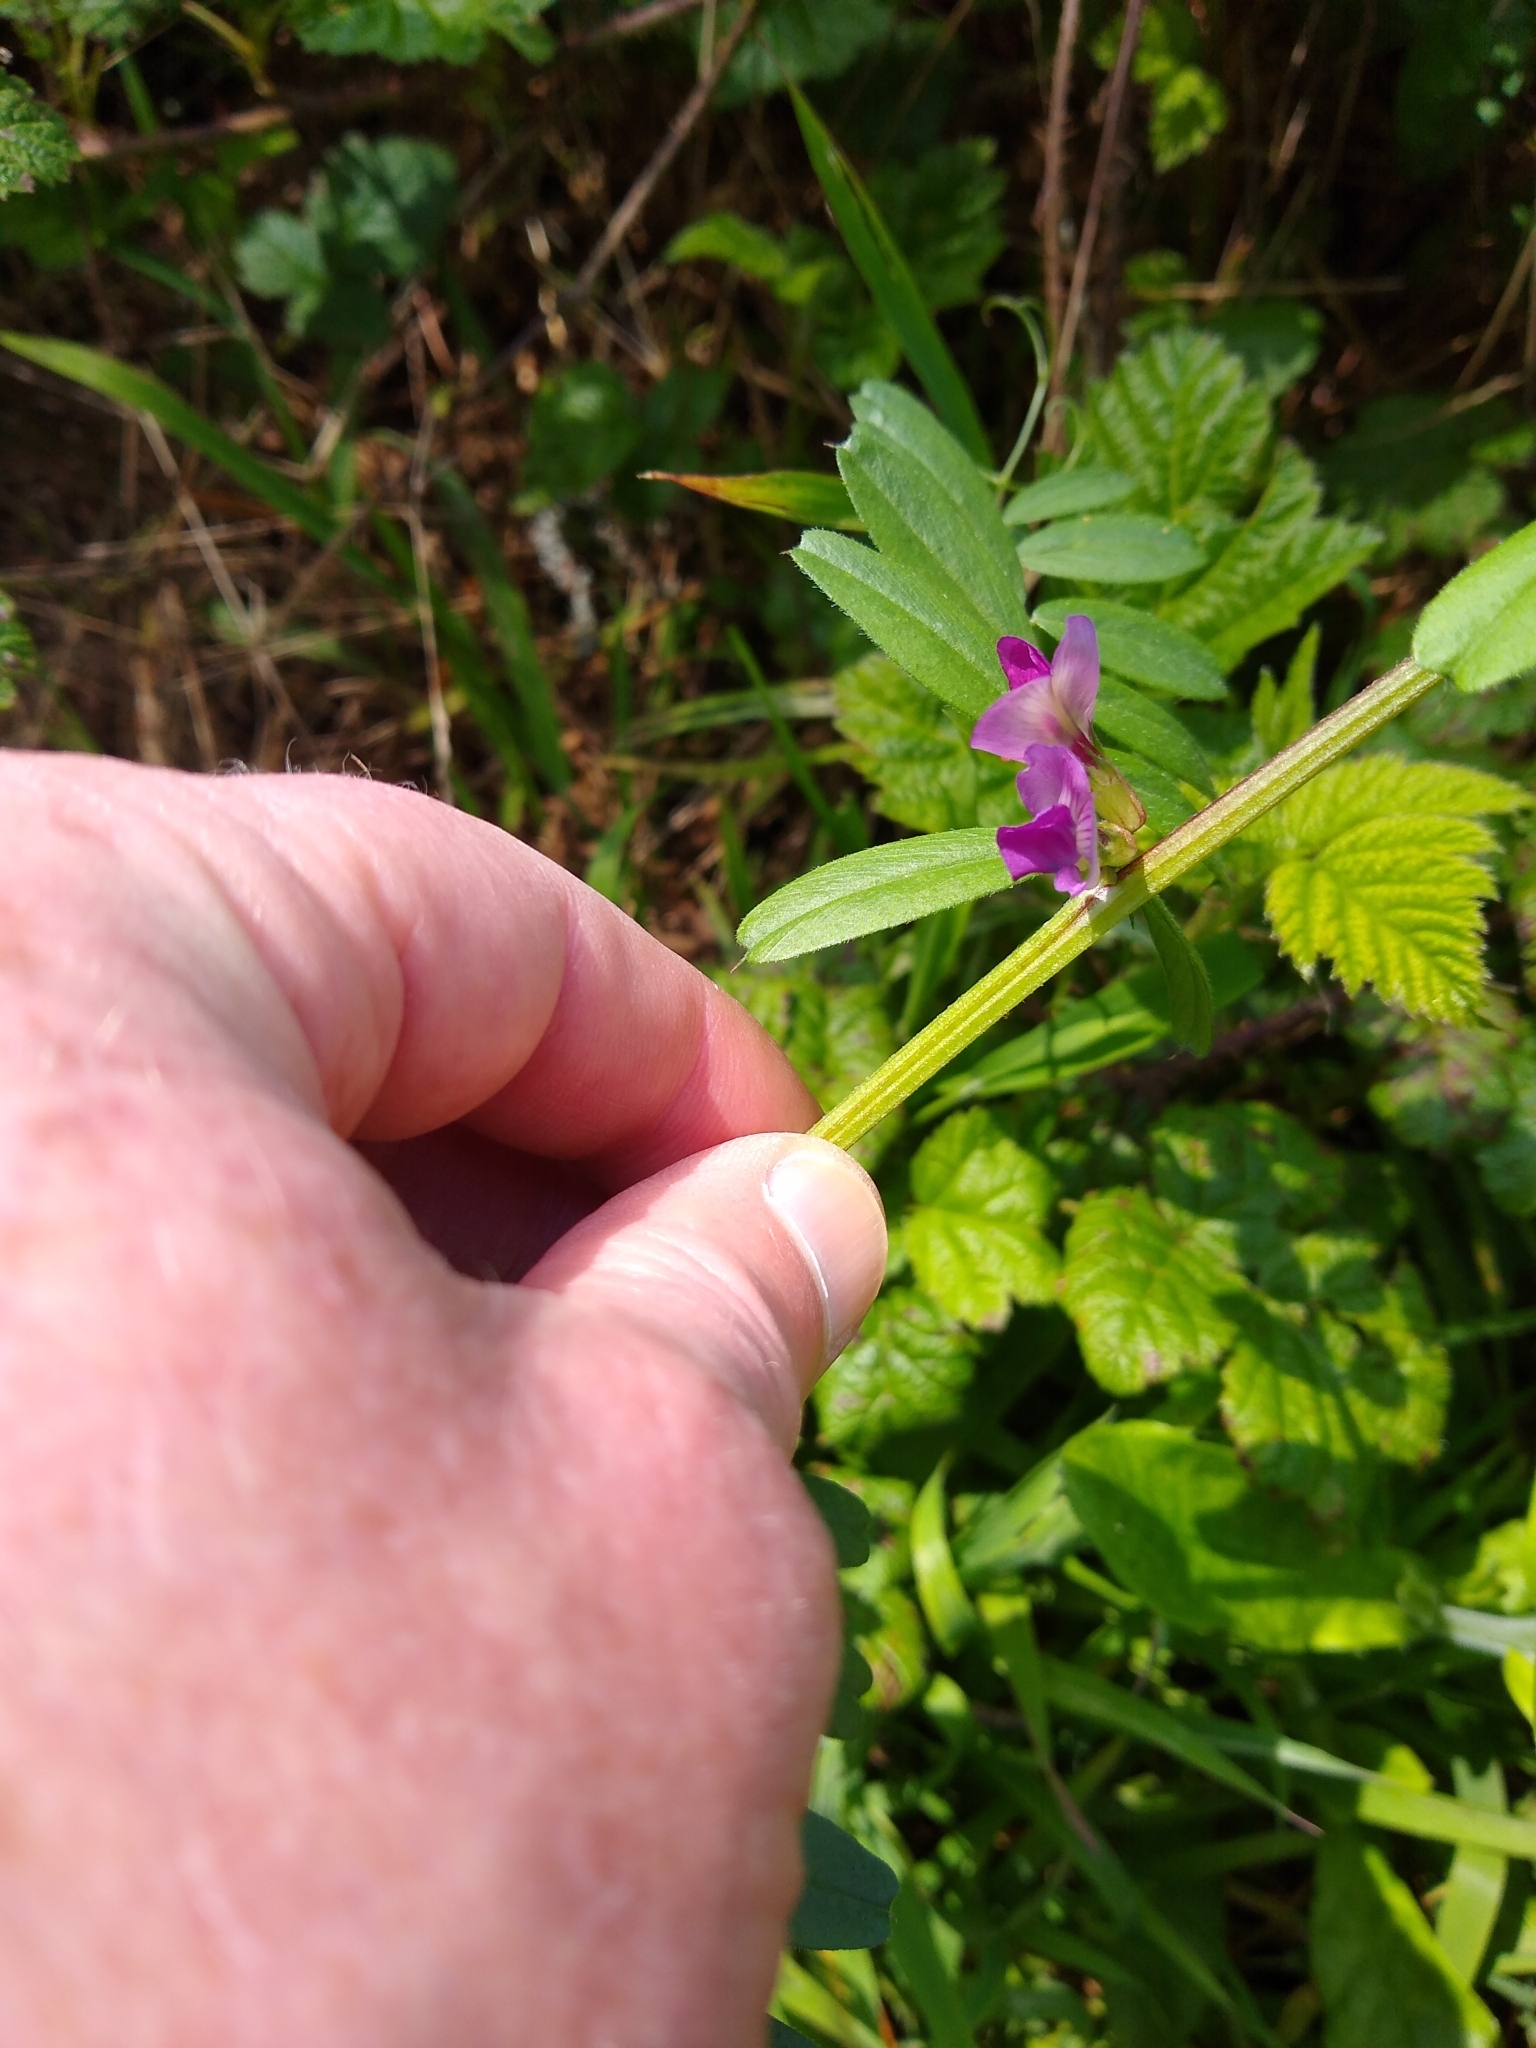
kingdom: Plantae
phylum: Tracheophyta
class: Magnoliopsida
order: Fabales
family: Fabaceae
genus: Vicia
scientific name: Vicia sativa
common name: Garden vetch
